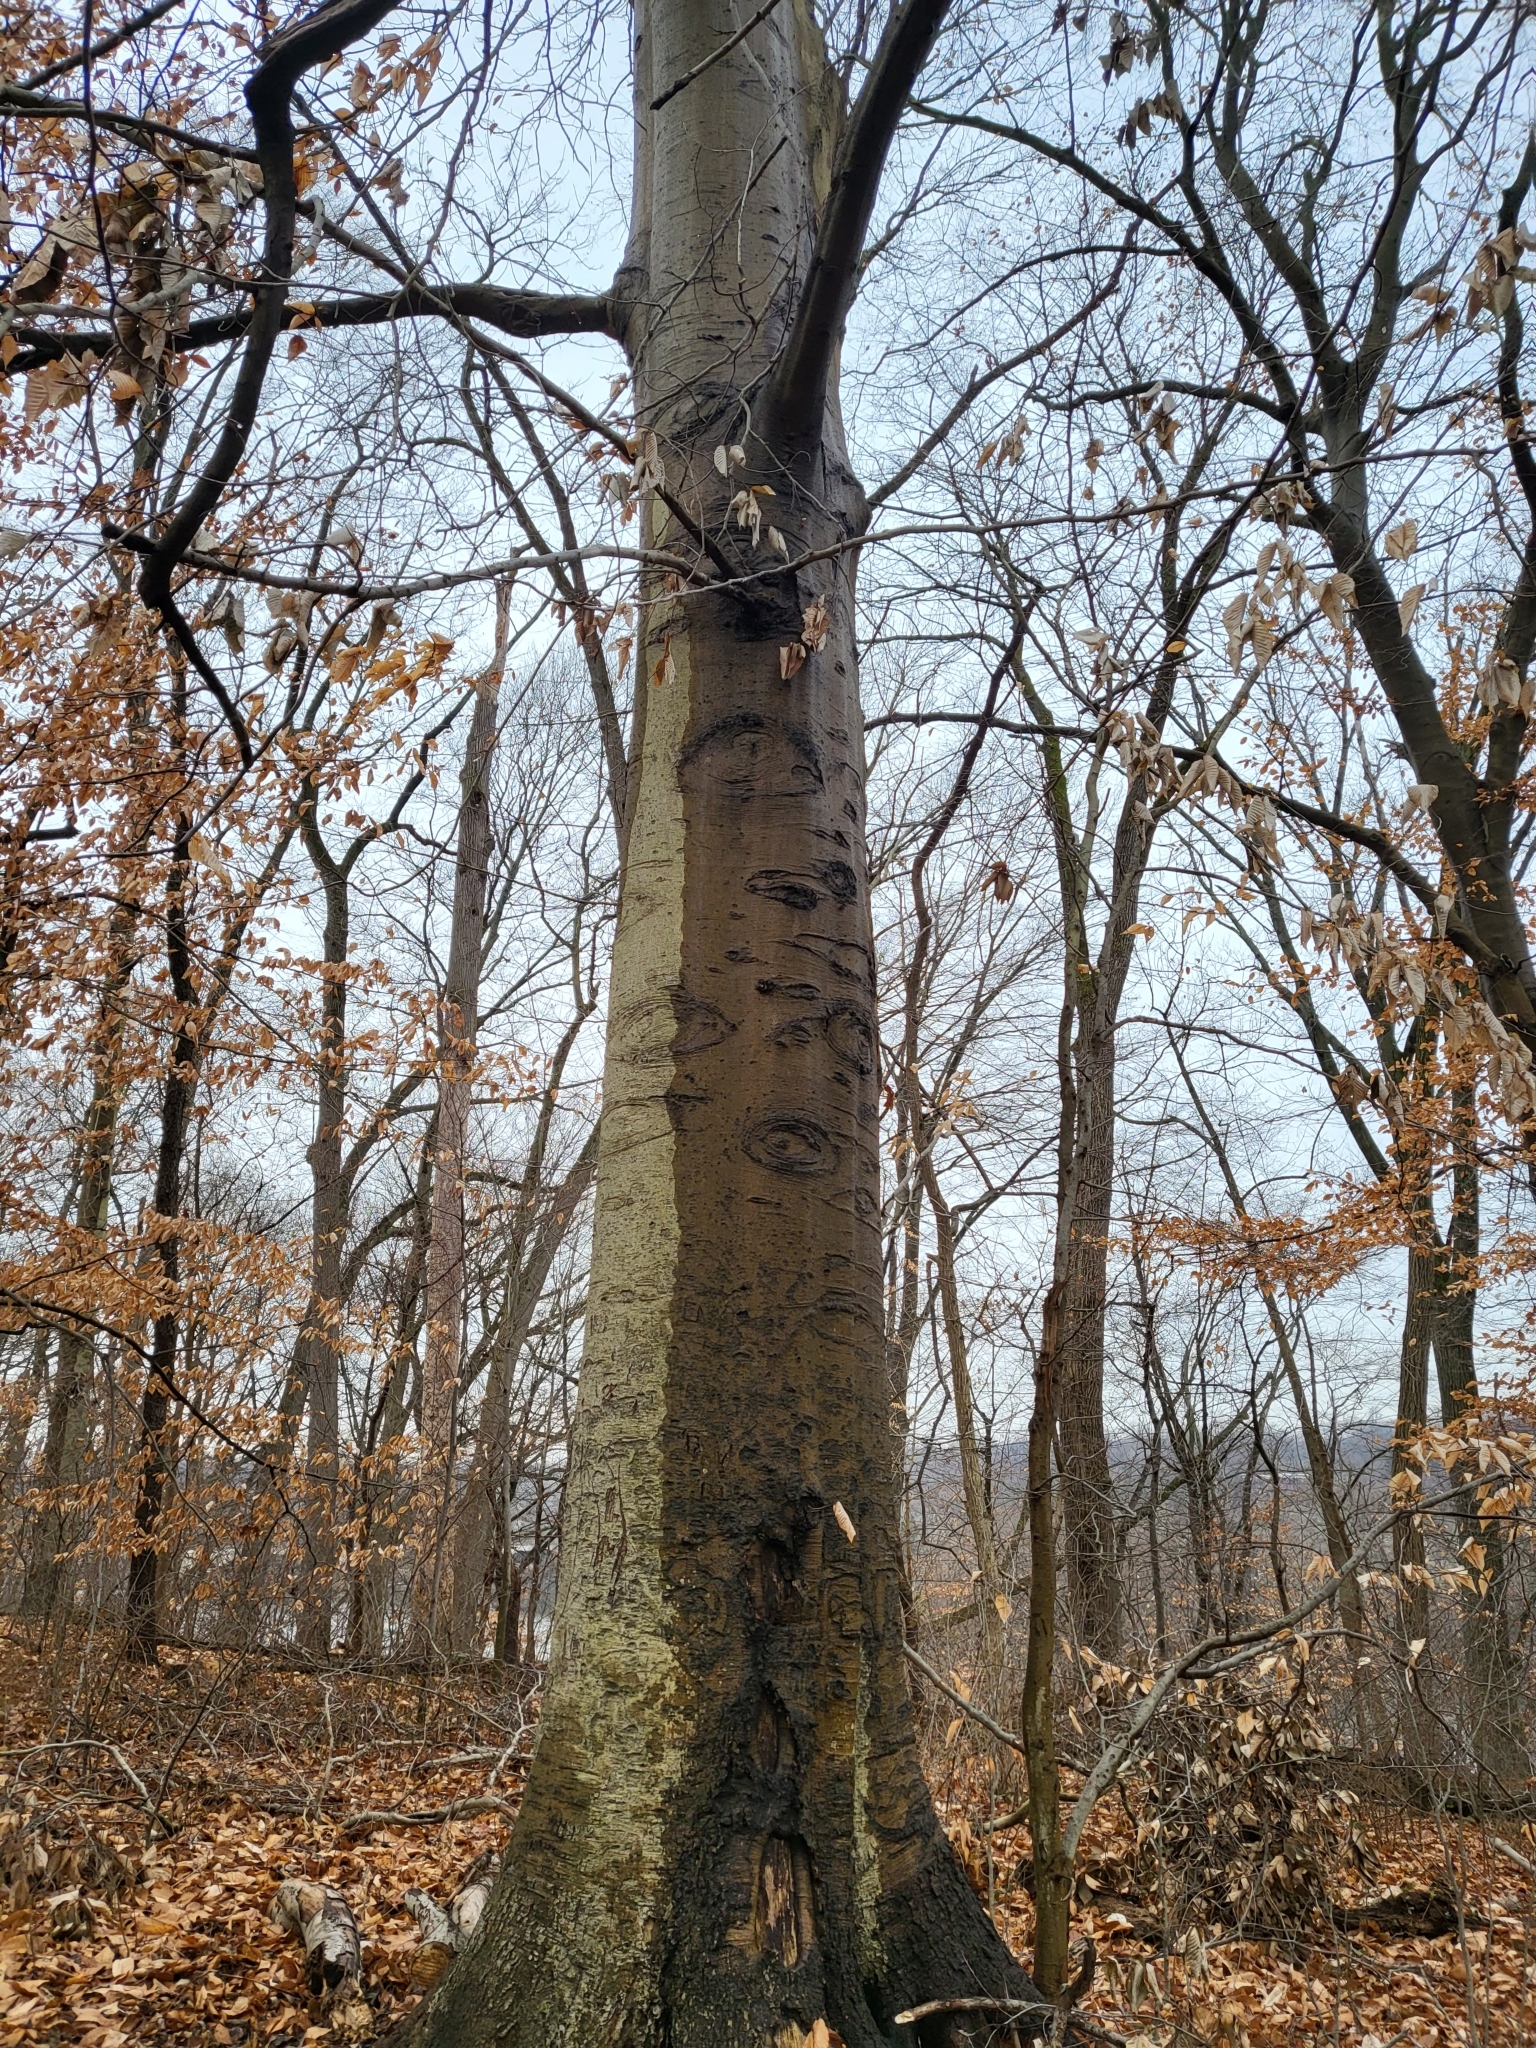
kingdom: Plantae
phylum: Tracheophyta
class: Magnoliopsida
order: Fagales
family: Fagaceae
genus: Fagus
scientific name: Fagus grandifolia
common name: American beech
